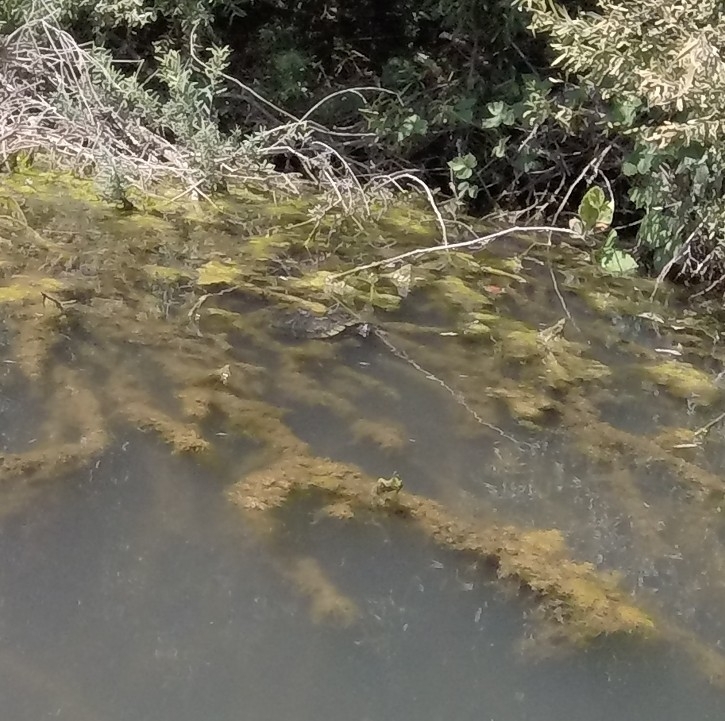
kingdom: Animalia
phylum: Chordata
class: Testudines
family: Emydidae
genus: Trachemys
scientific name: Trachemys scripta
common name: Slider
